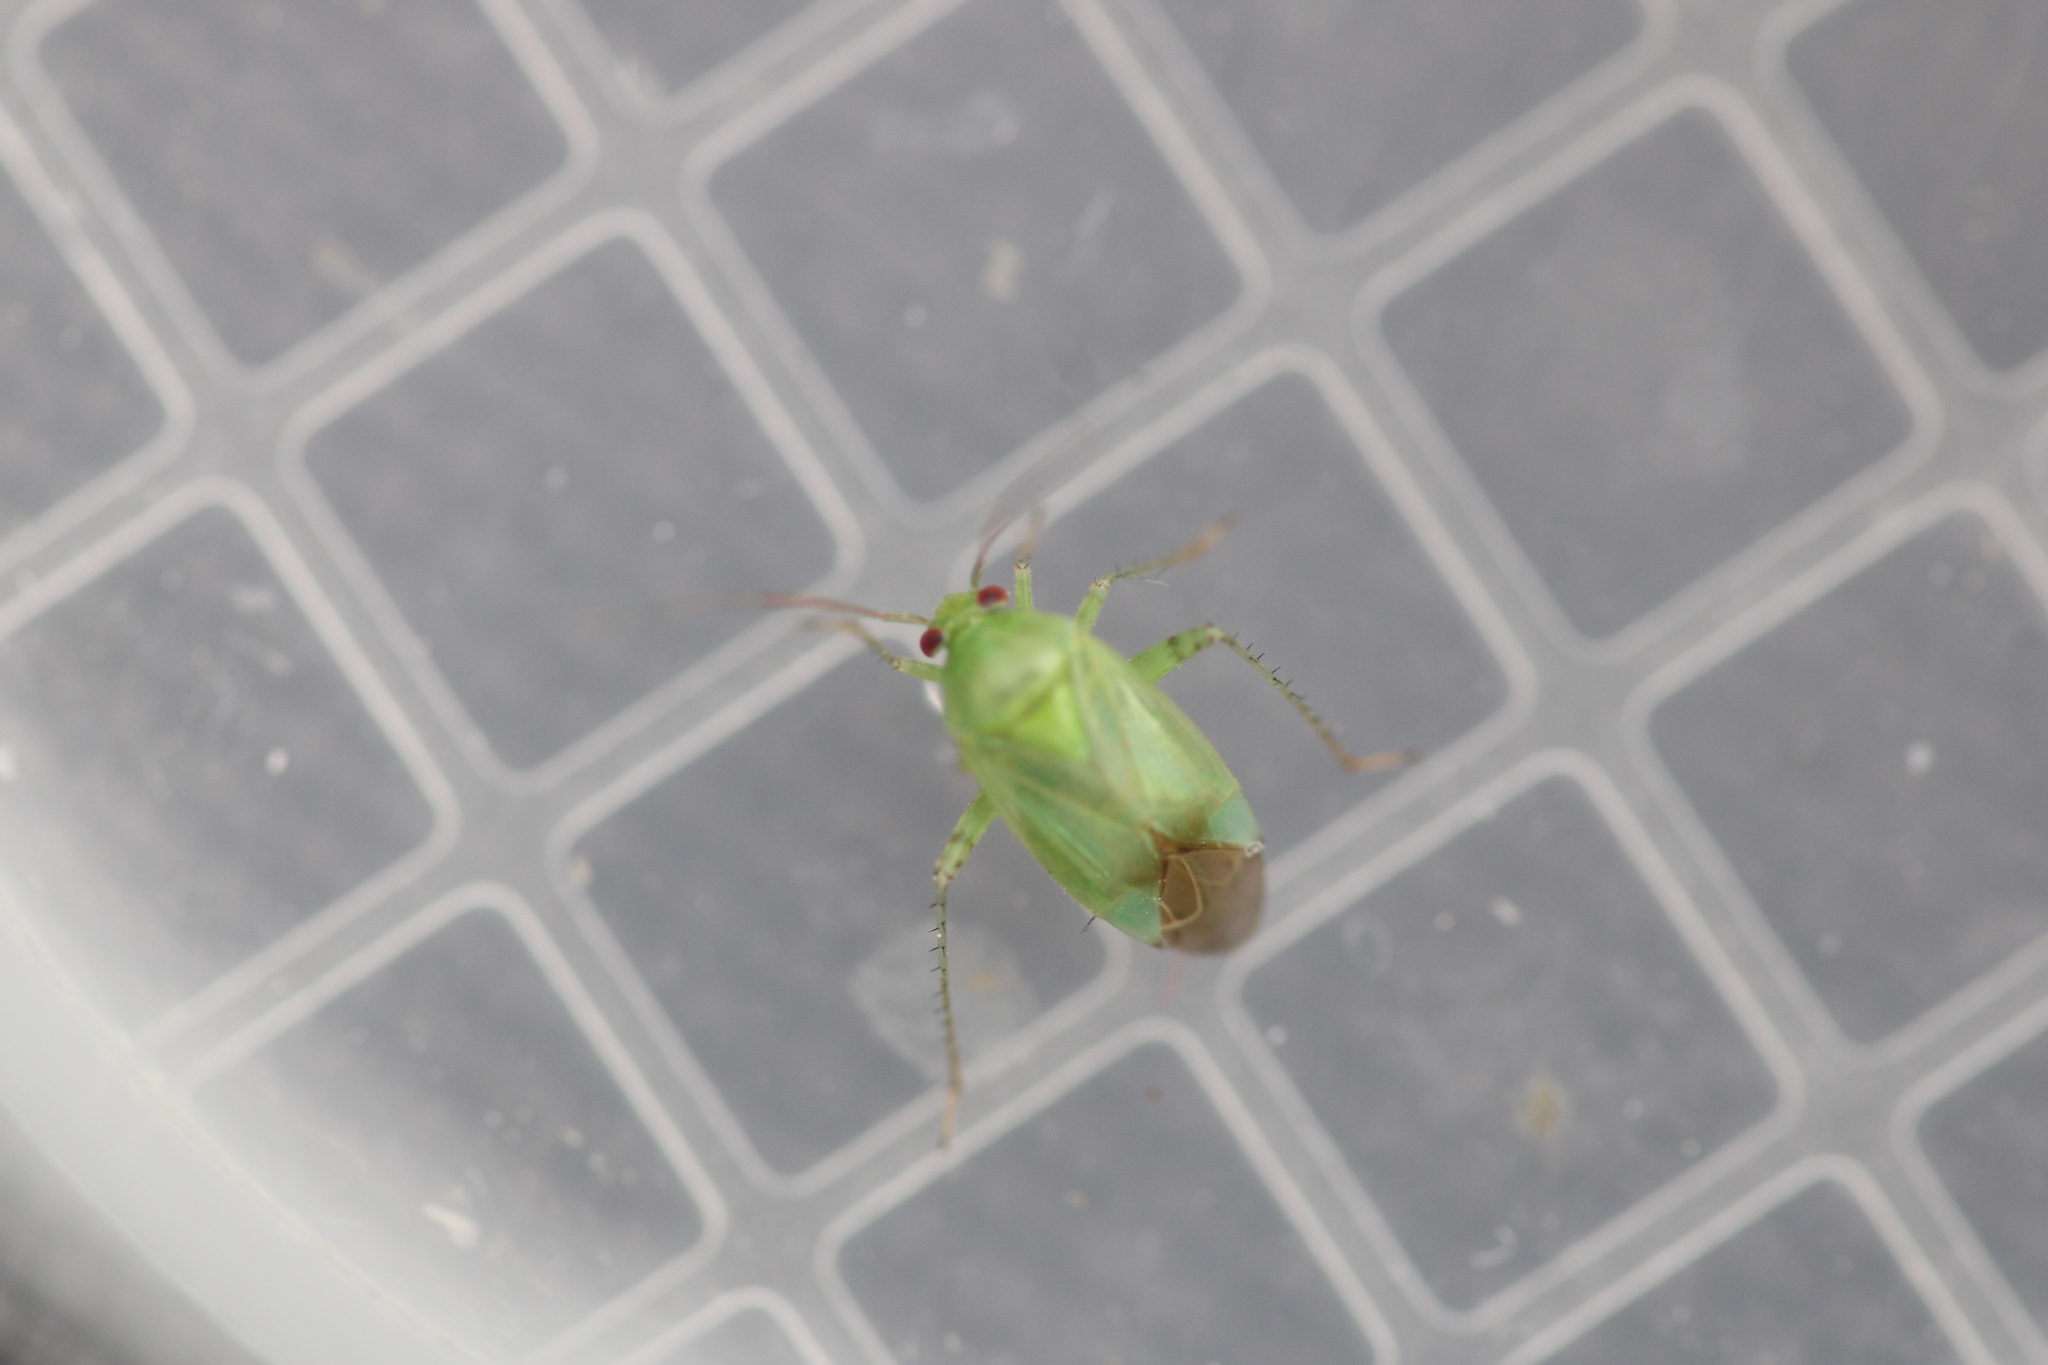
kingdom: Animalia
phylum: Arthropoda
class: Insecta
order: Hemiptera
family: Miridae
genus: Apolygus
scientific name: Apolygus spinolae
